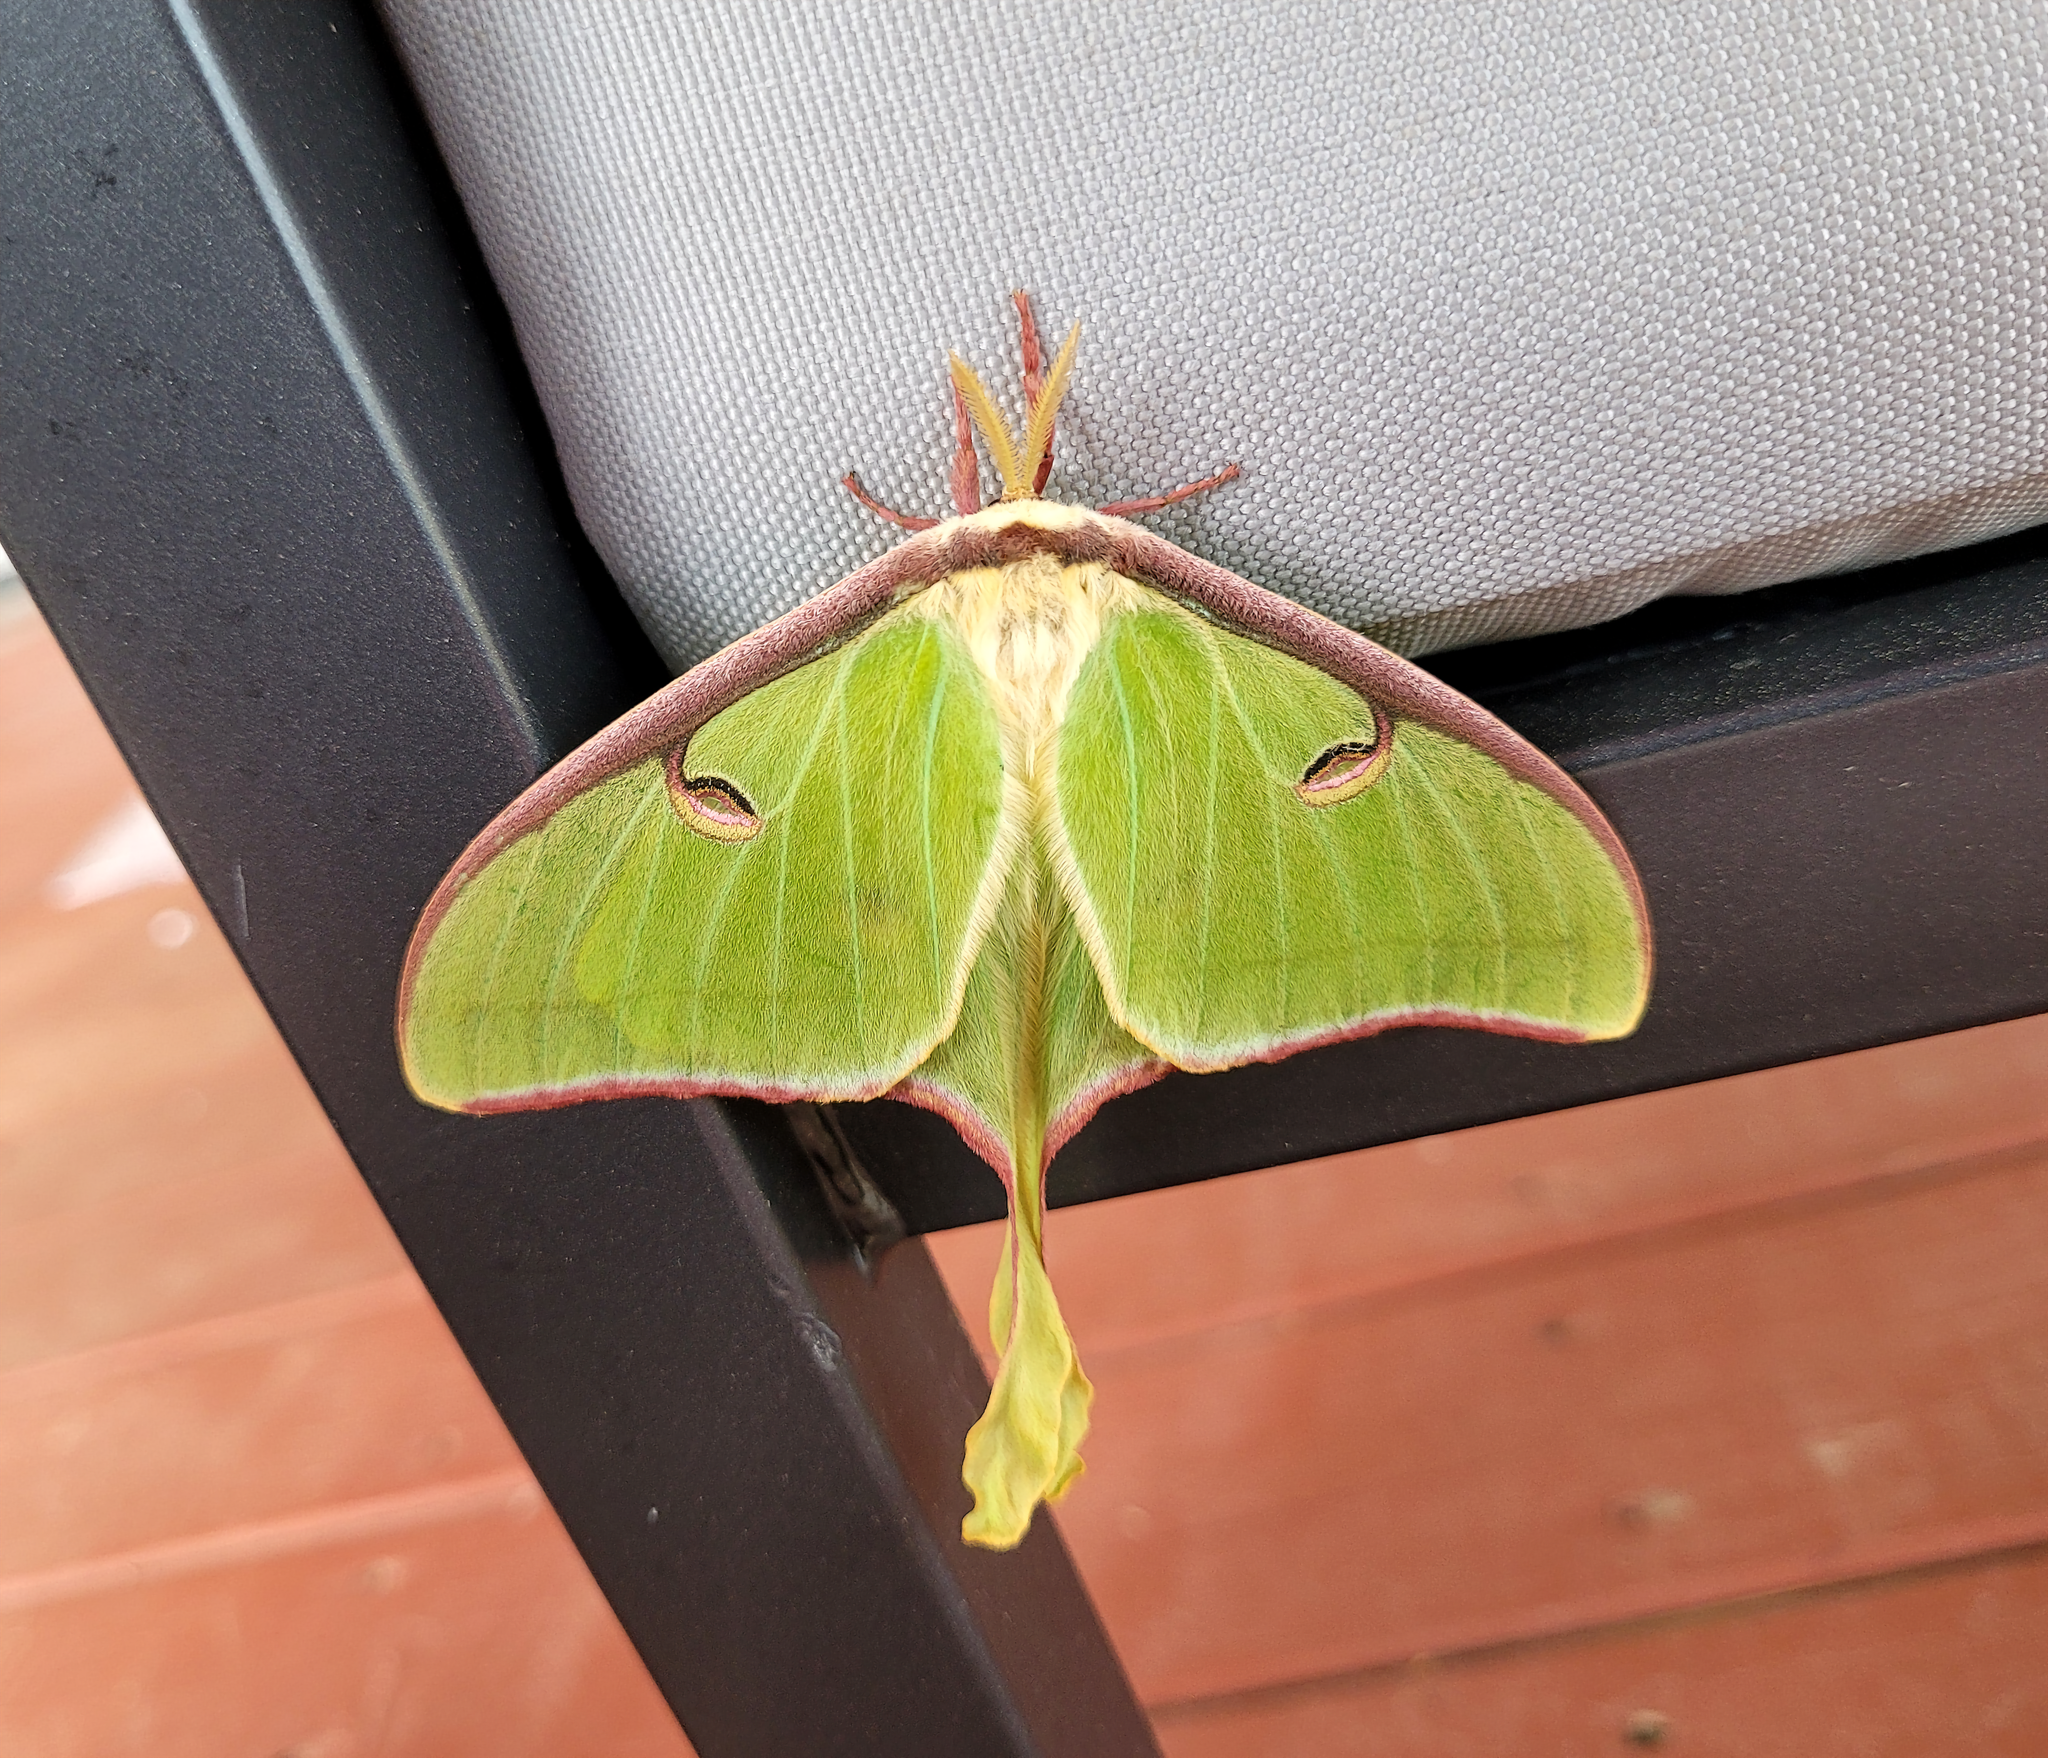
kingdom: Animalia
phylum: Arthropoda
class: Insecta
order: Lepidoptera
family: Saturniidae
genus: Actias
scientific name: Actias luna
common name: Luna moth
